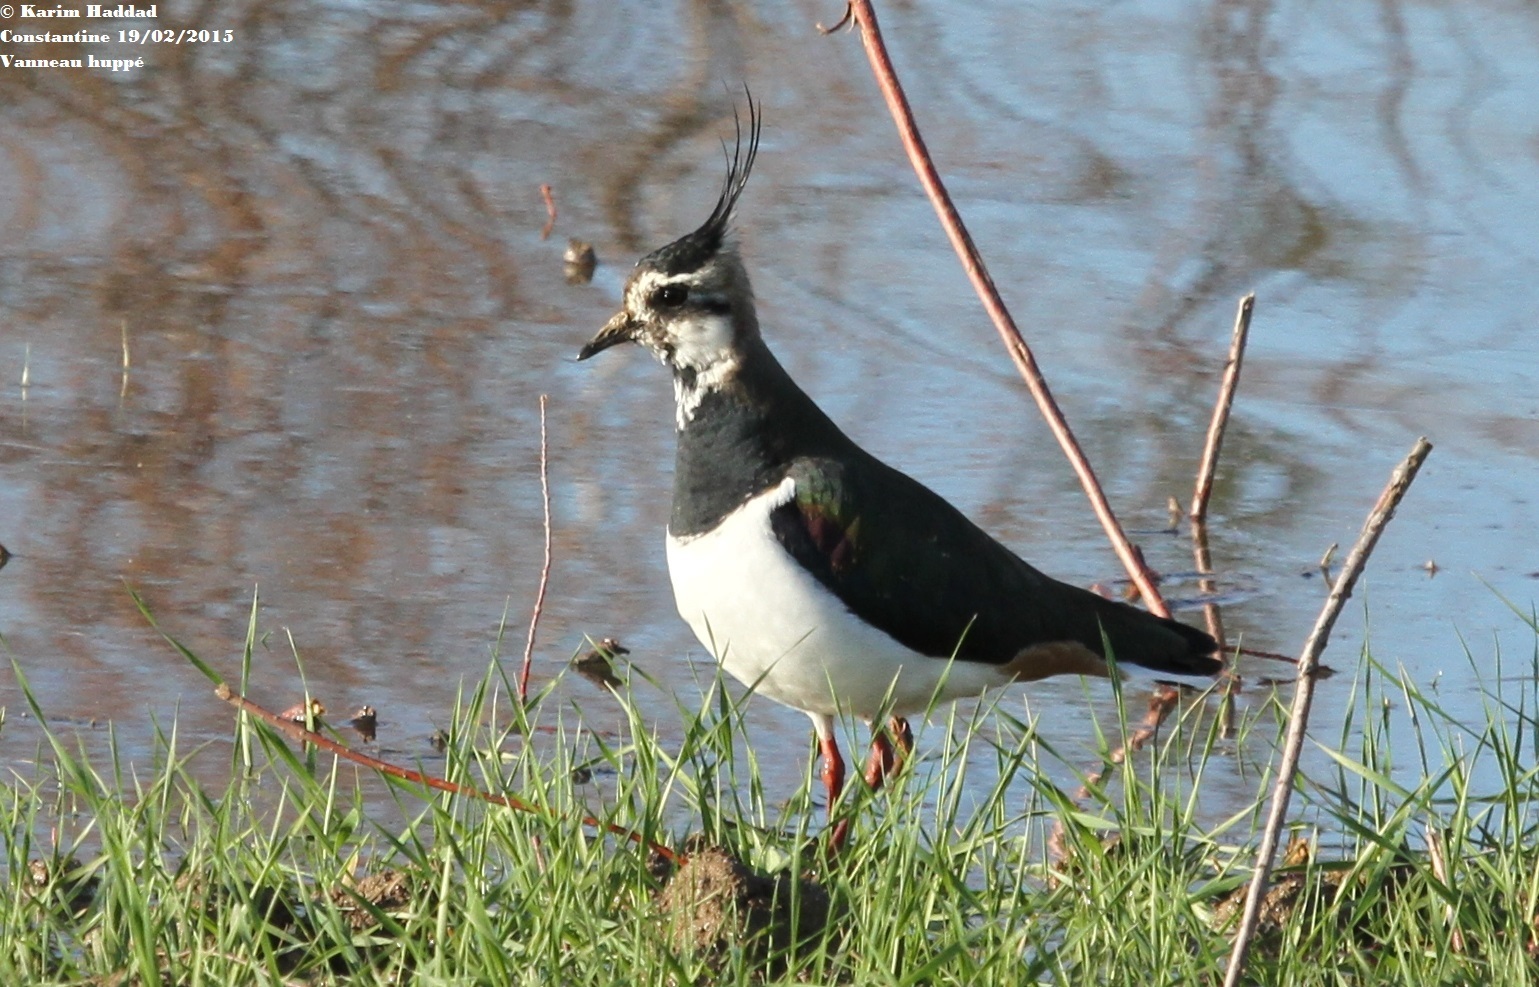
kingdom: Animalia
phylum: Chordata
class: Aves
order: Charadriiformes
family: Charadriidae
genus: Vanellus
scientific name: Vanellus vanellus
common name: Northern lapwing
